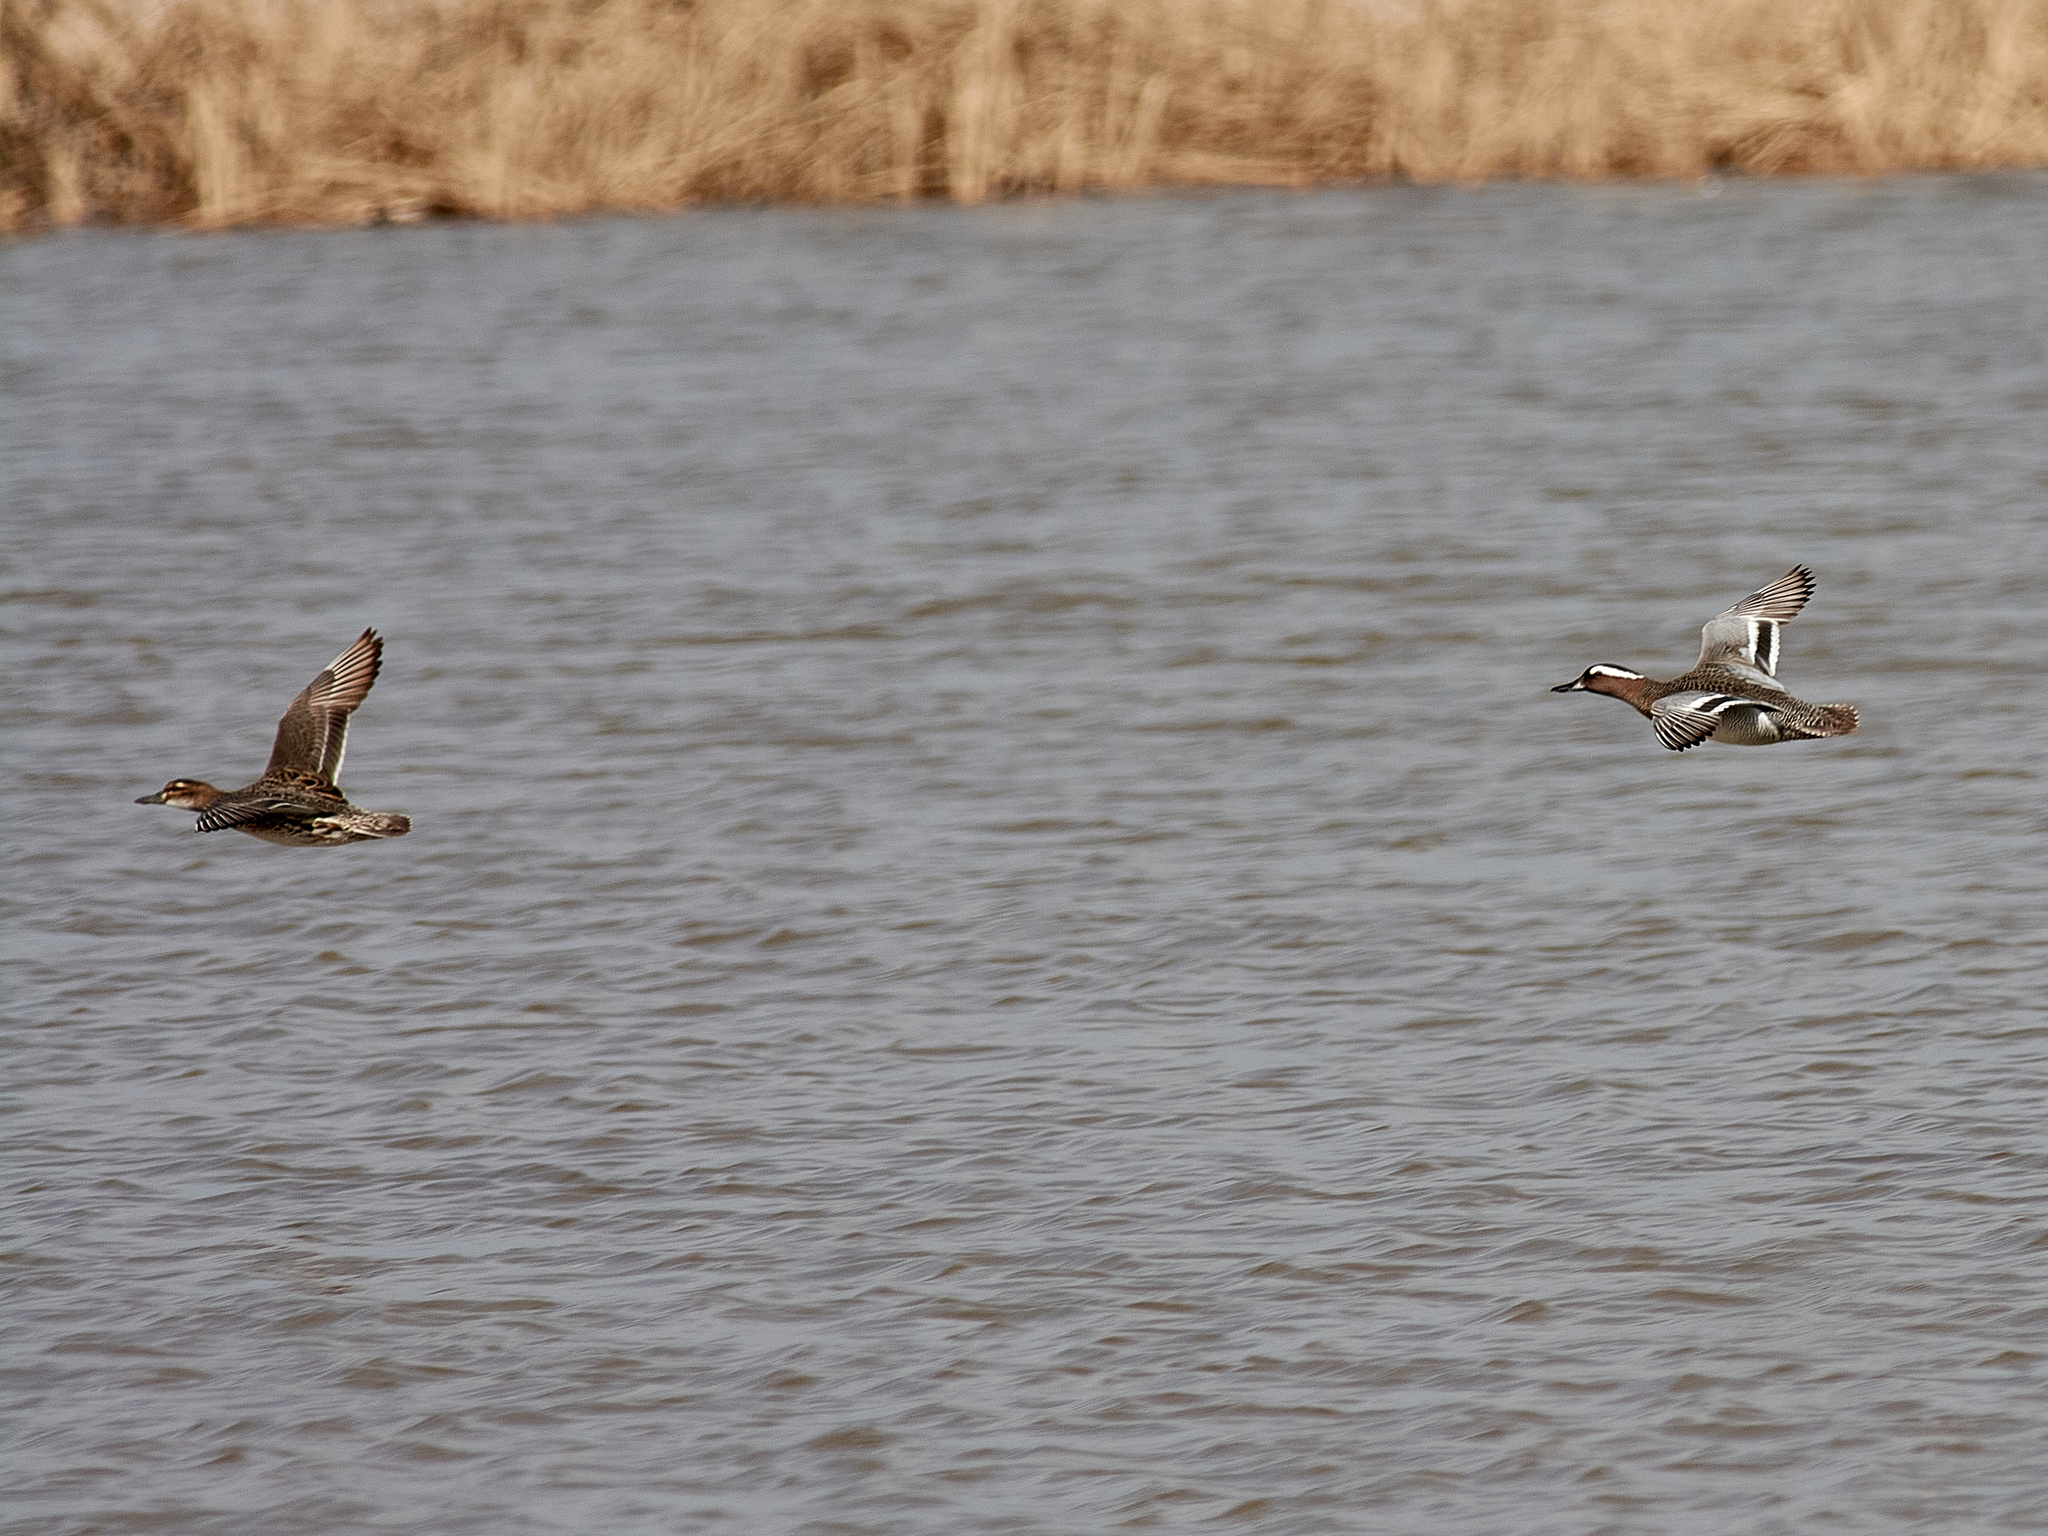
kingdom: Animalia
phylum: Chordata
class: Aves
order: Anseriformes
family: Anatidae
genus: Spatula
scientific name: Spatula querquedula
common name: Garganey
